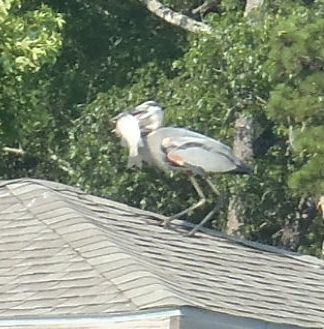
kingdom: Animalia
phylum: Chordata
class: Aves
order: Pelecaniformes
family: Ardeidae
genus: Ardea
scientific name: Ardea herodias
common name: Great blue heron
